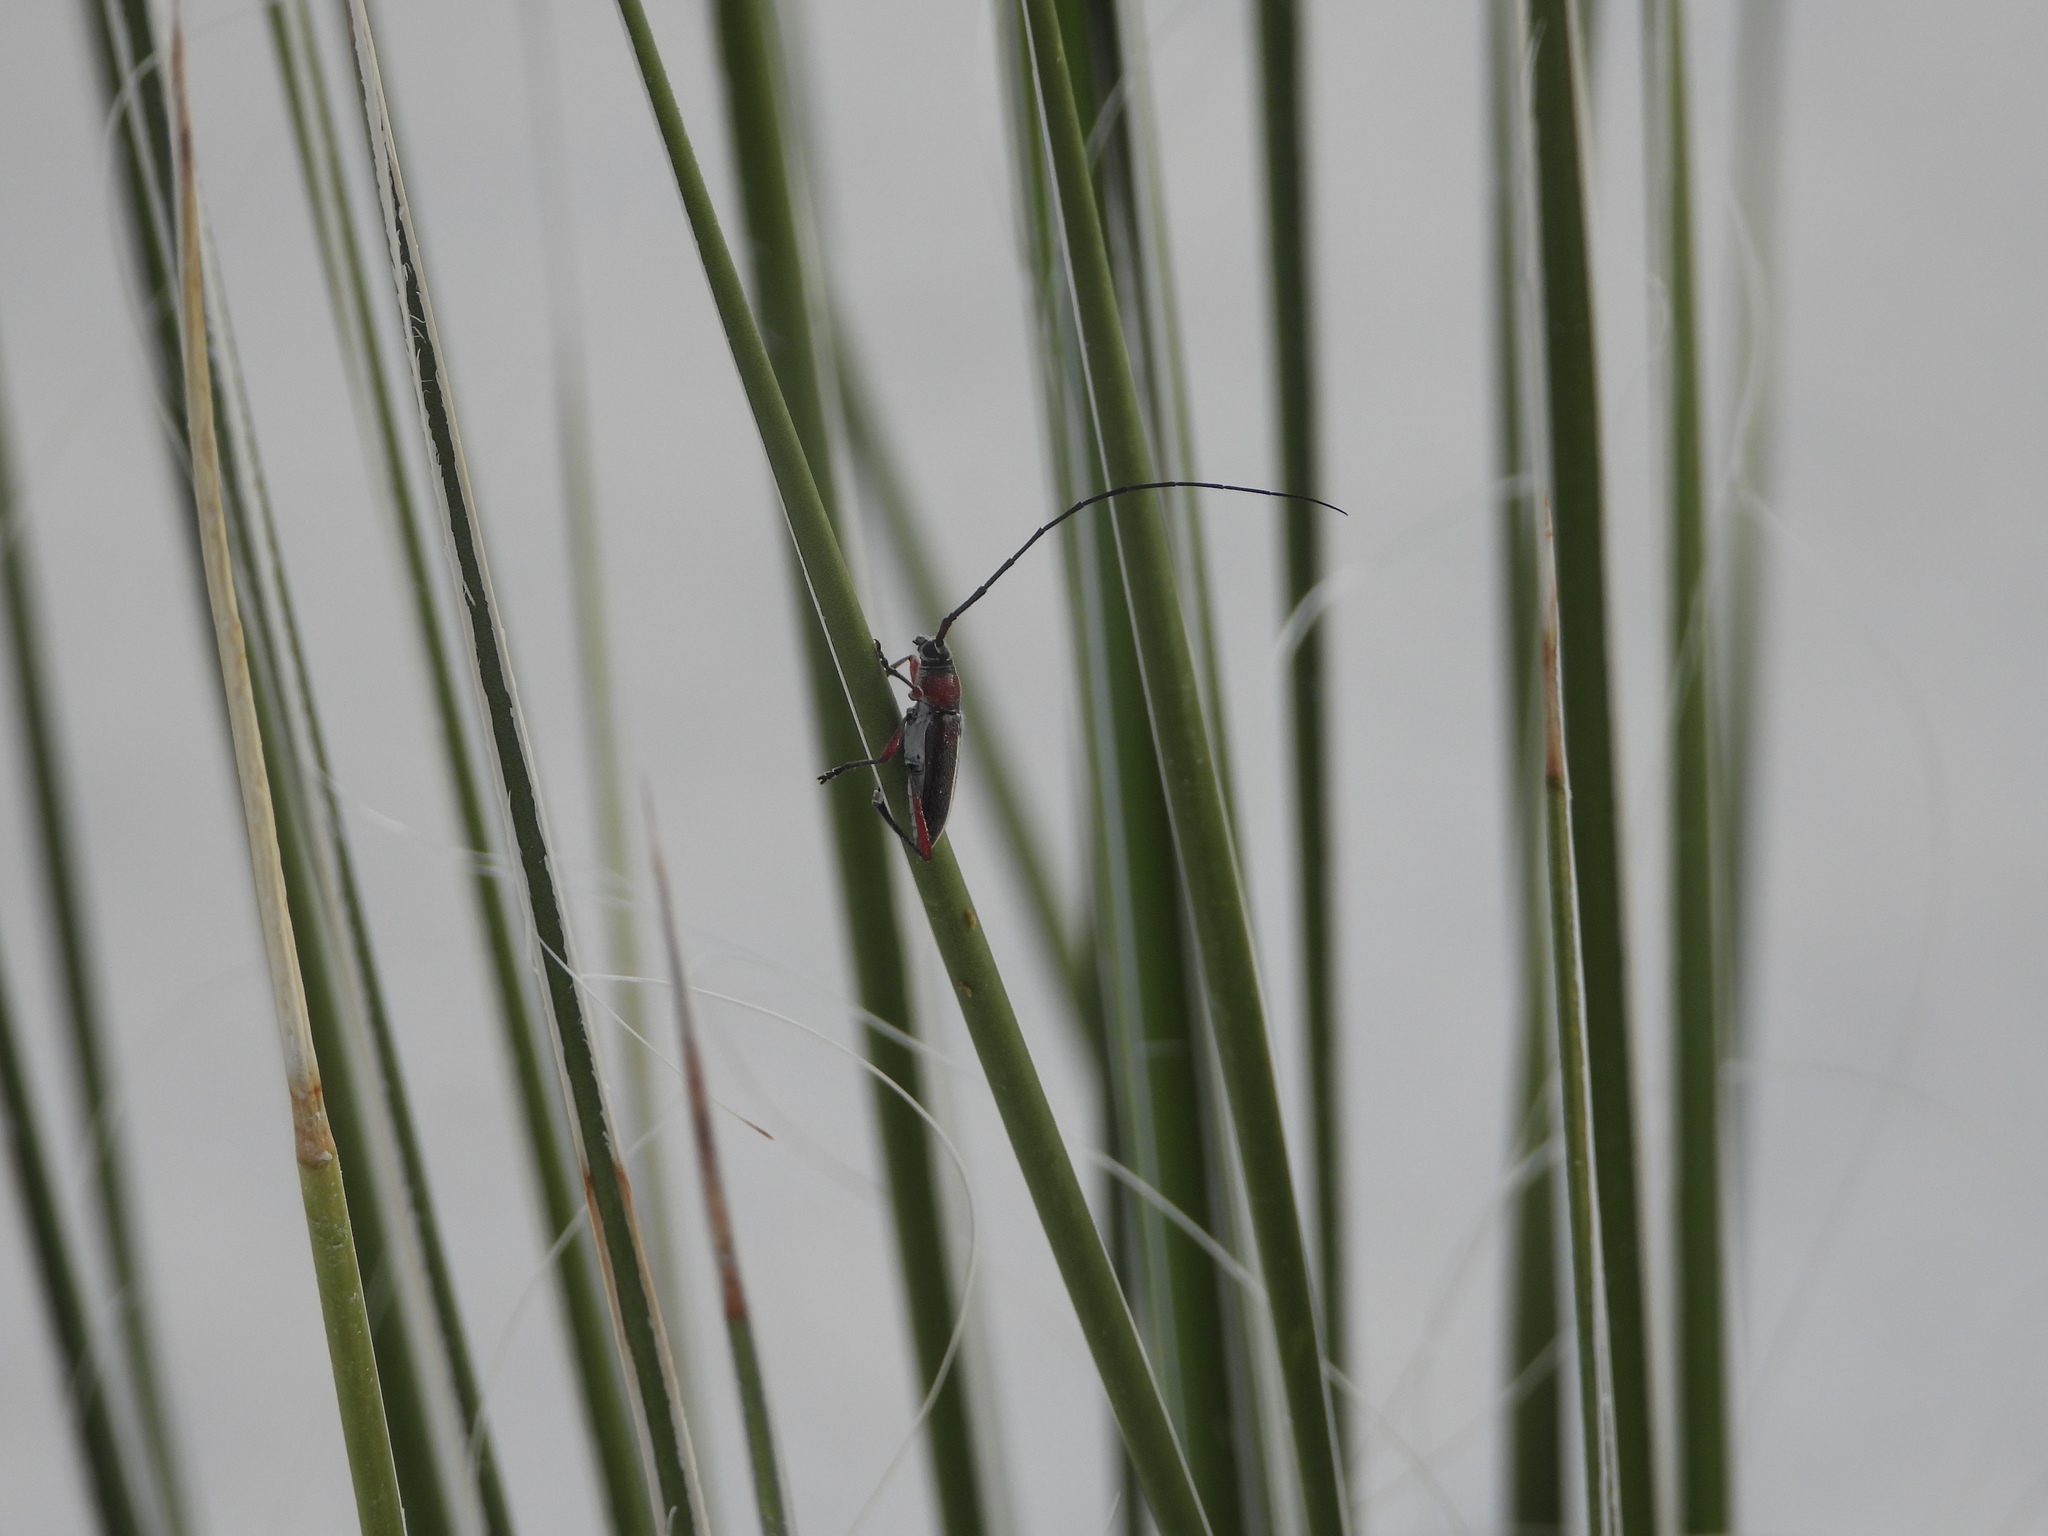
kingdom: Animalia
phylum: Arthropoda
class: Insecta
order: Coleoptera
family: Cerambycidae
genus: Plionoma
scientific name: Plionoma suturalis
